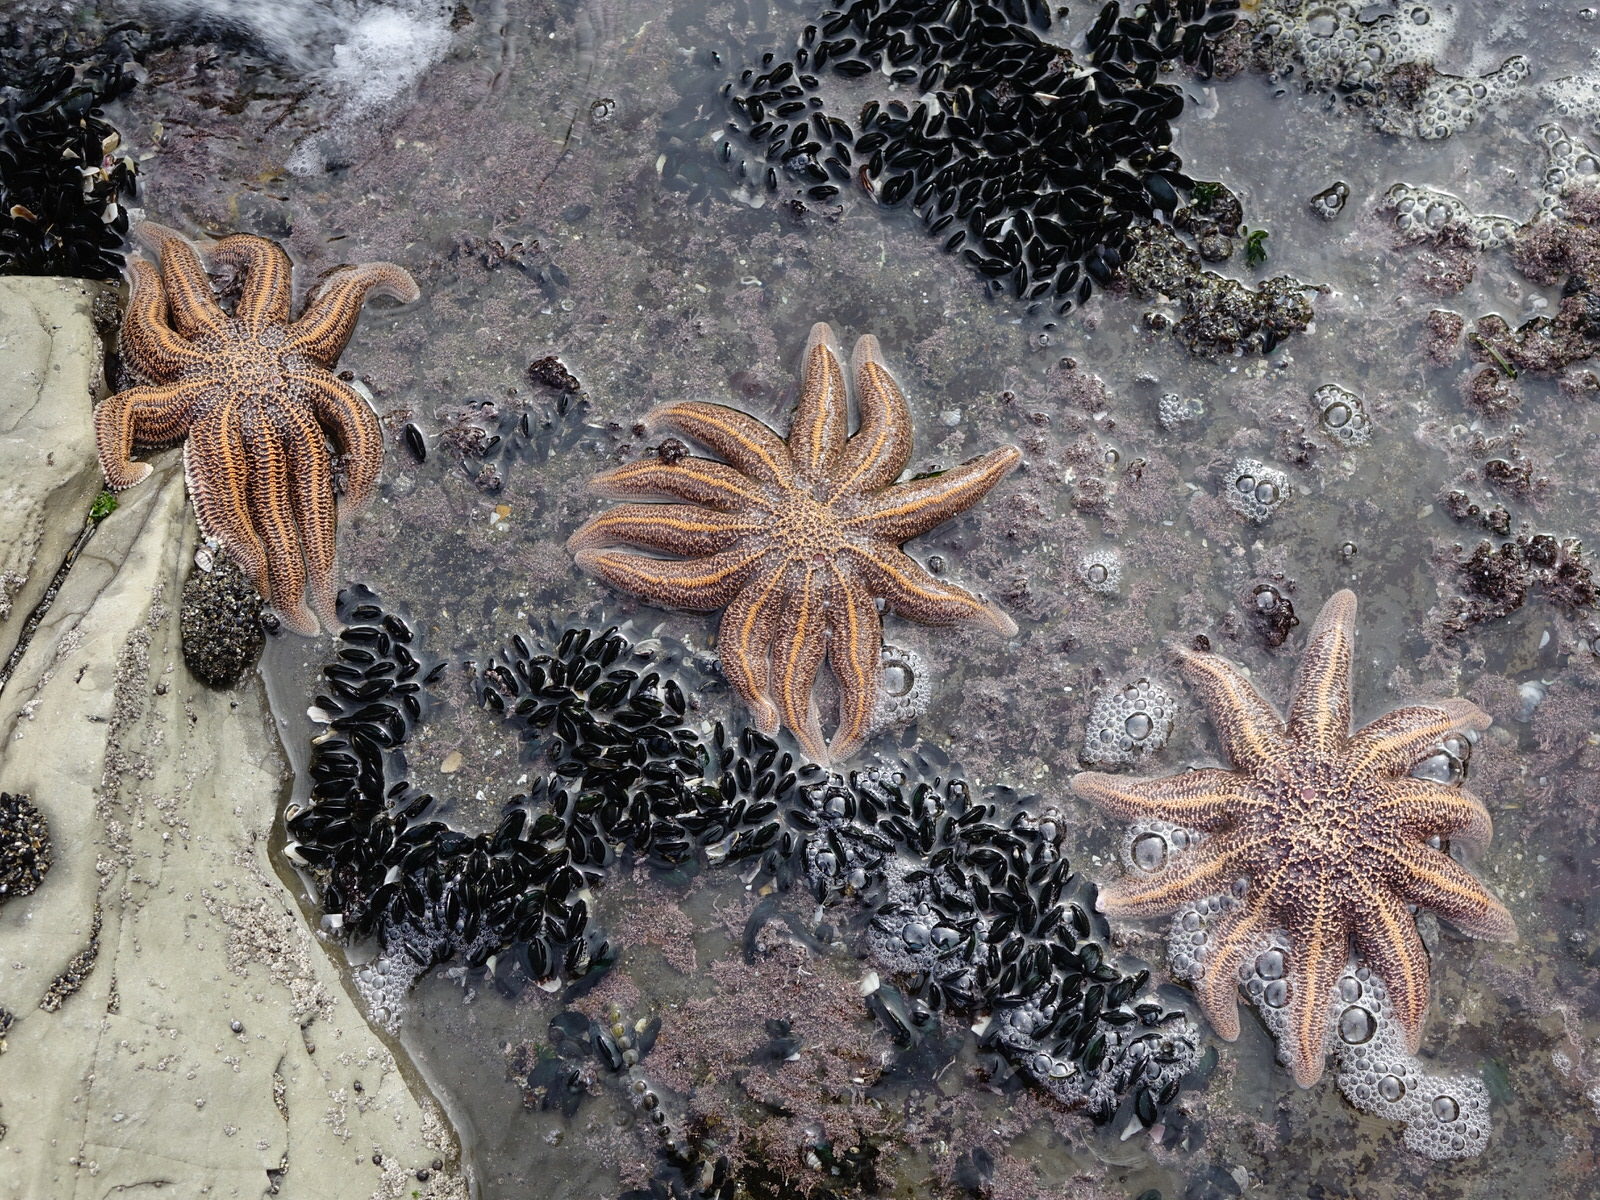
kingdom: Animalia
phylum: Echinodermata
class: Asteroidea
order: Forcipulatida
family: Stichasteridae
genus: Stichaster
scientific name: Stichaster australis
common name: Reef starfish
